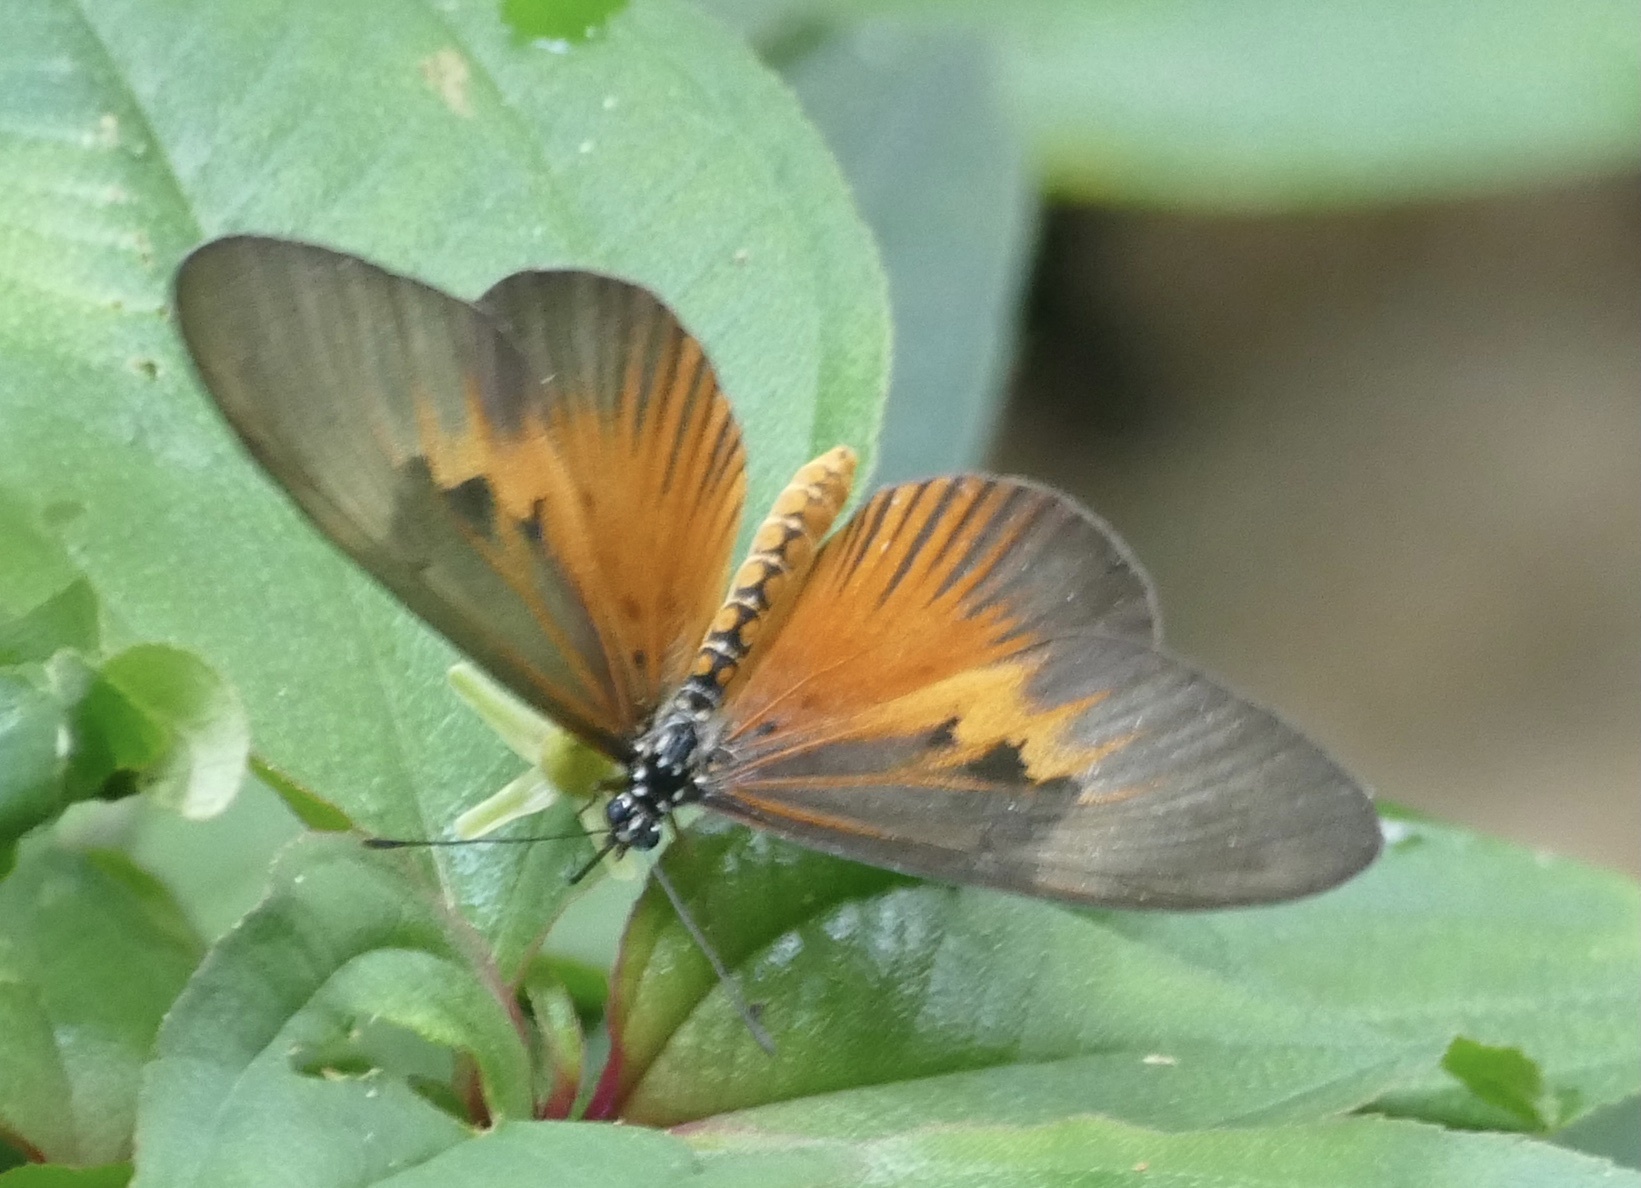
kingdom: Animalia
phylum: Arthropoda
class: Insecta
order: Lepidoptera
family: Nymphalidae
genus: Acraea
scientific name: Acraea Telchinia alciope
